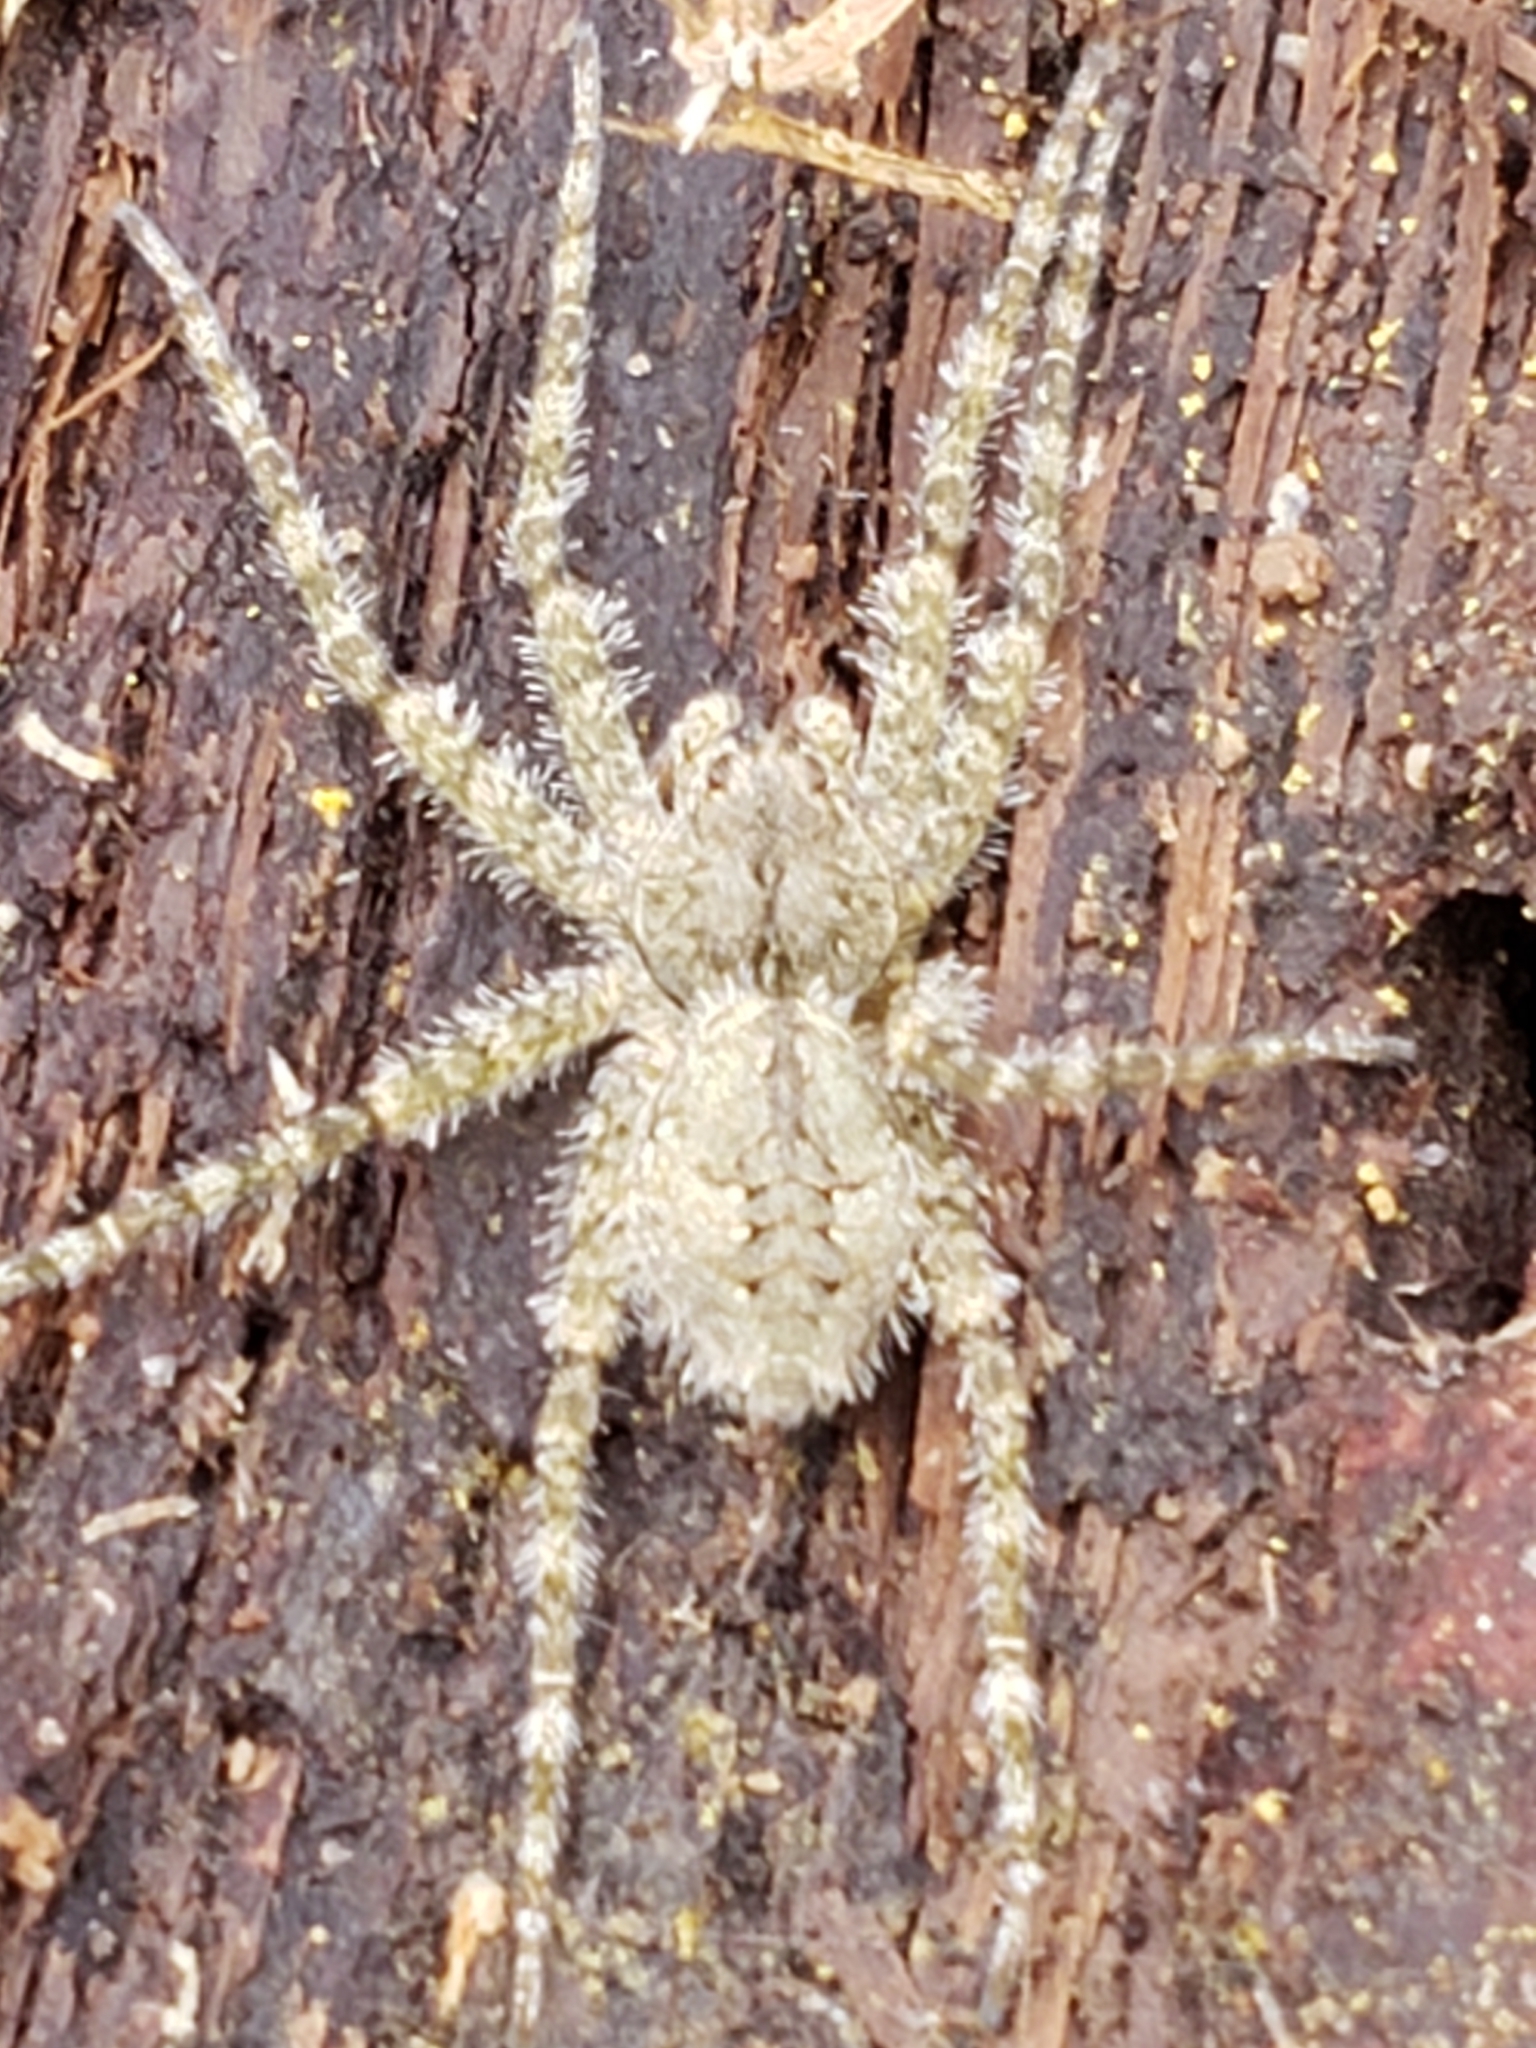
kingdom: Animalia
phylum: Arthropoda
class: Arachnida
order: Araneae
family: Pisauridae
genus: Dolomedes
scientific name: Dolomedes albineus
